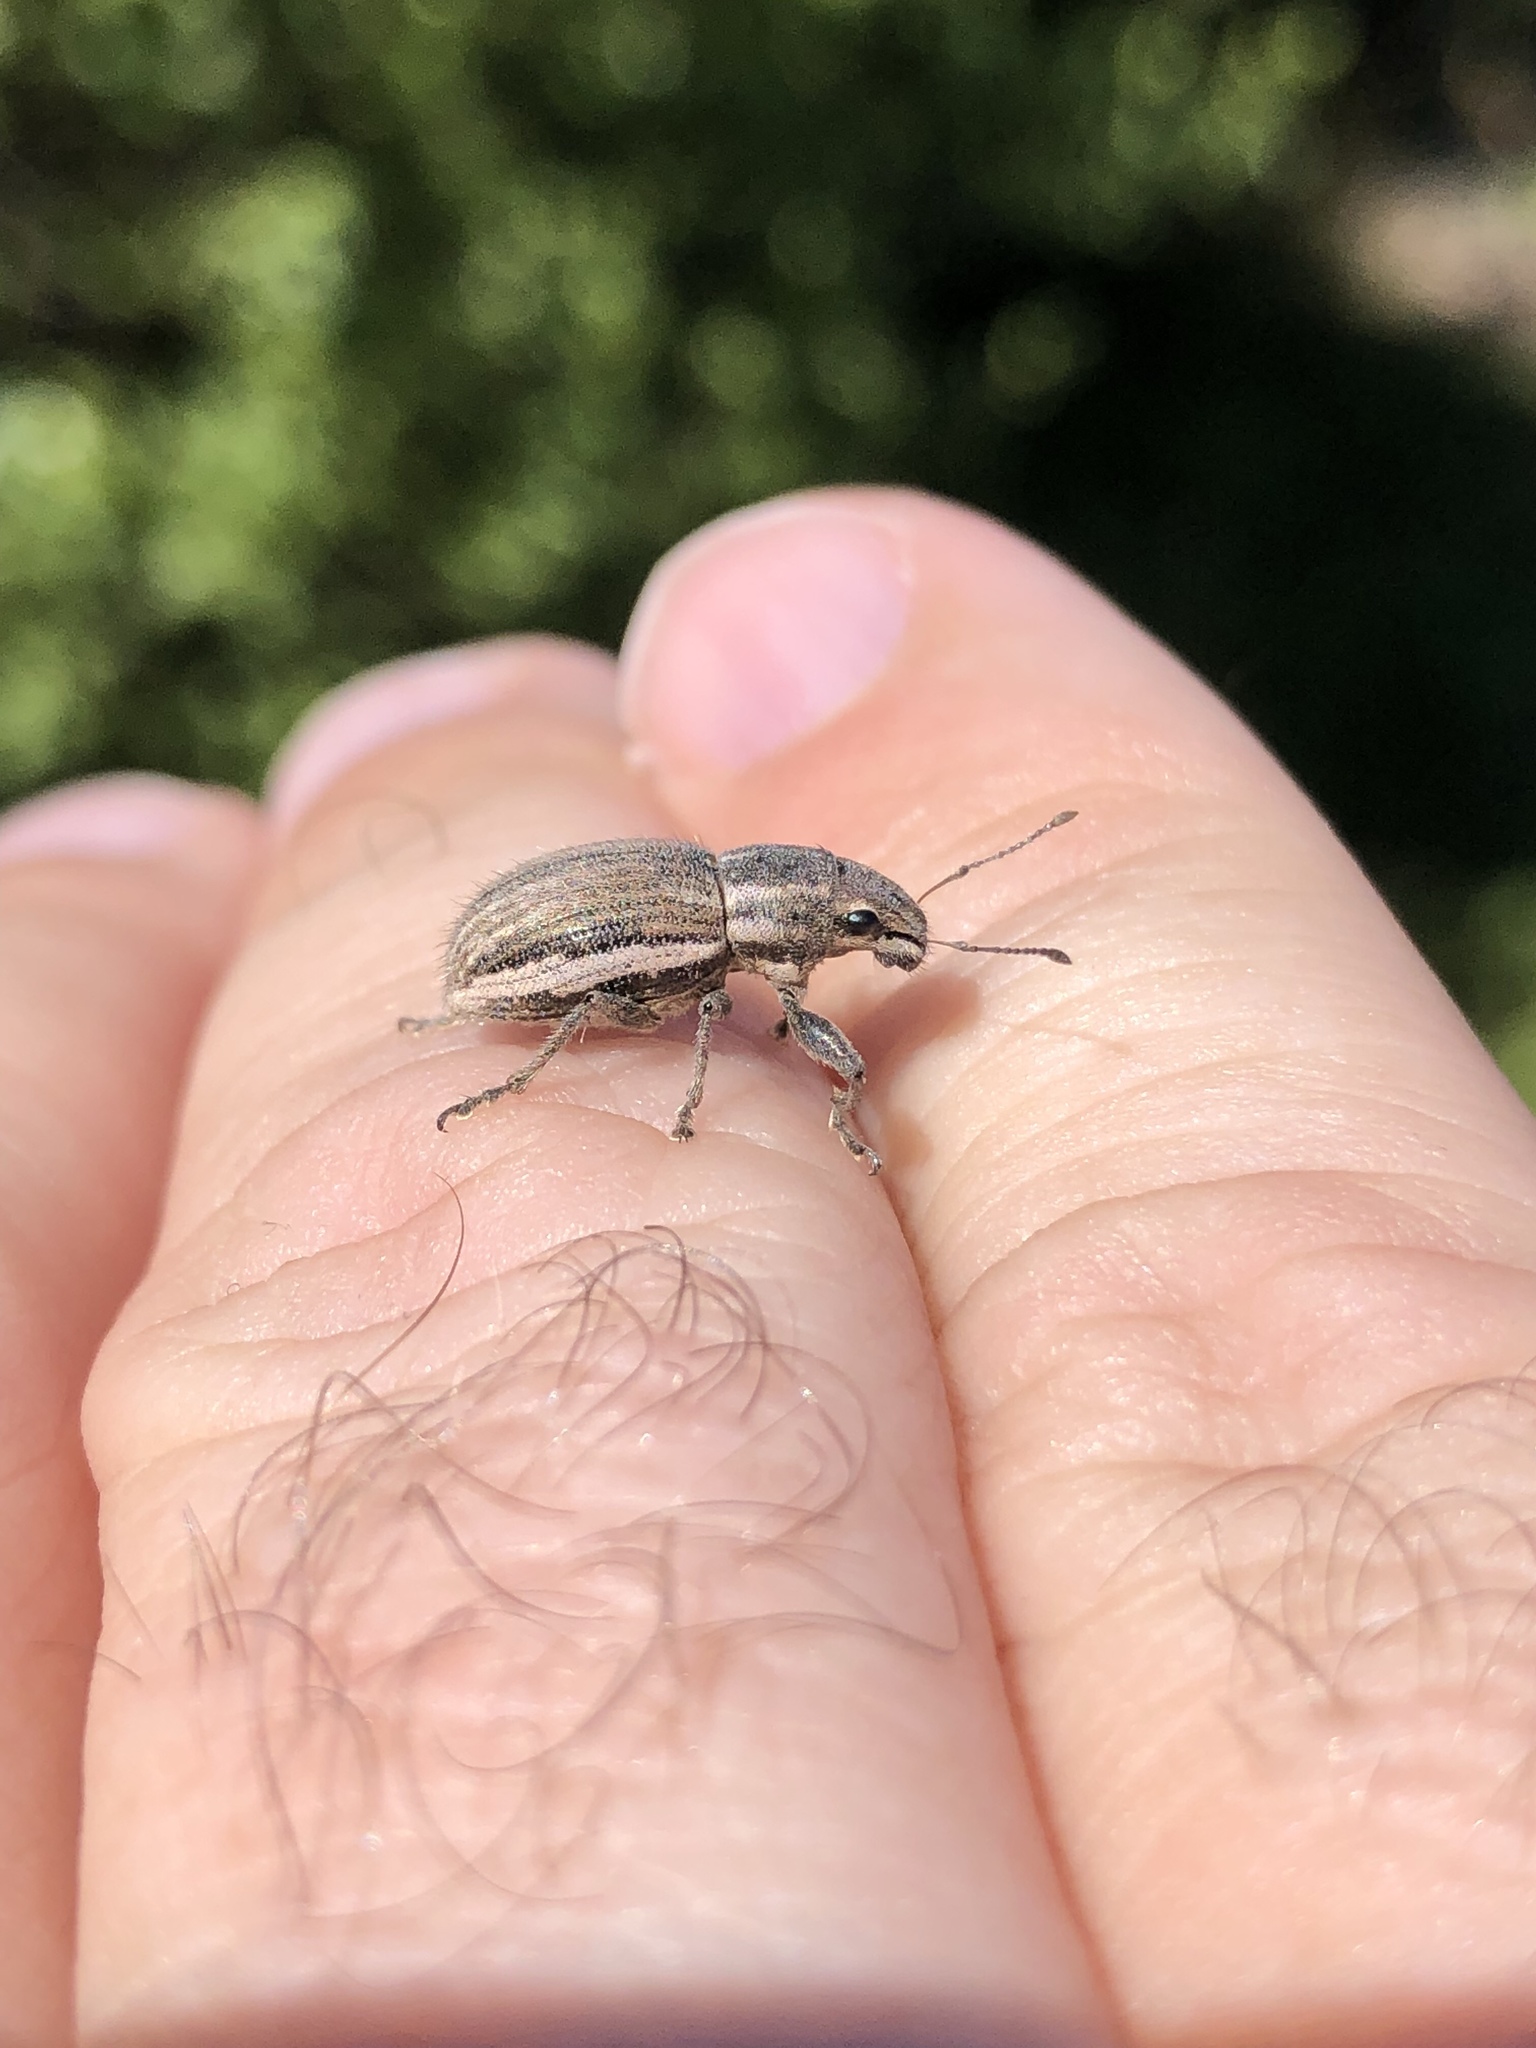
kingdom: Animalia
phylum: Arthropoda
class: Insecta
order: Coleoptera
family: Curculionidae
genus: Naupactus
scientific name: Naupactus leucoloma
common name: Whitefringed beetle
